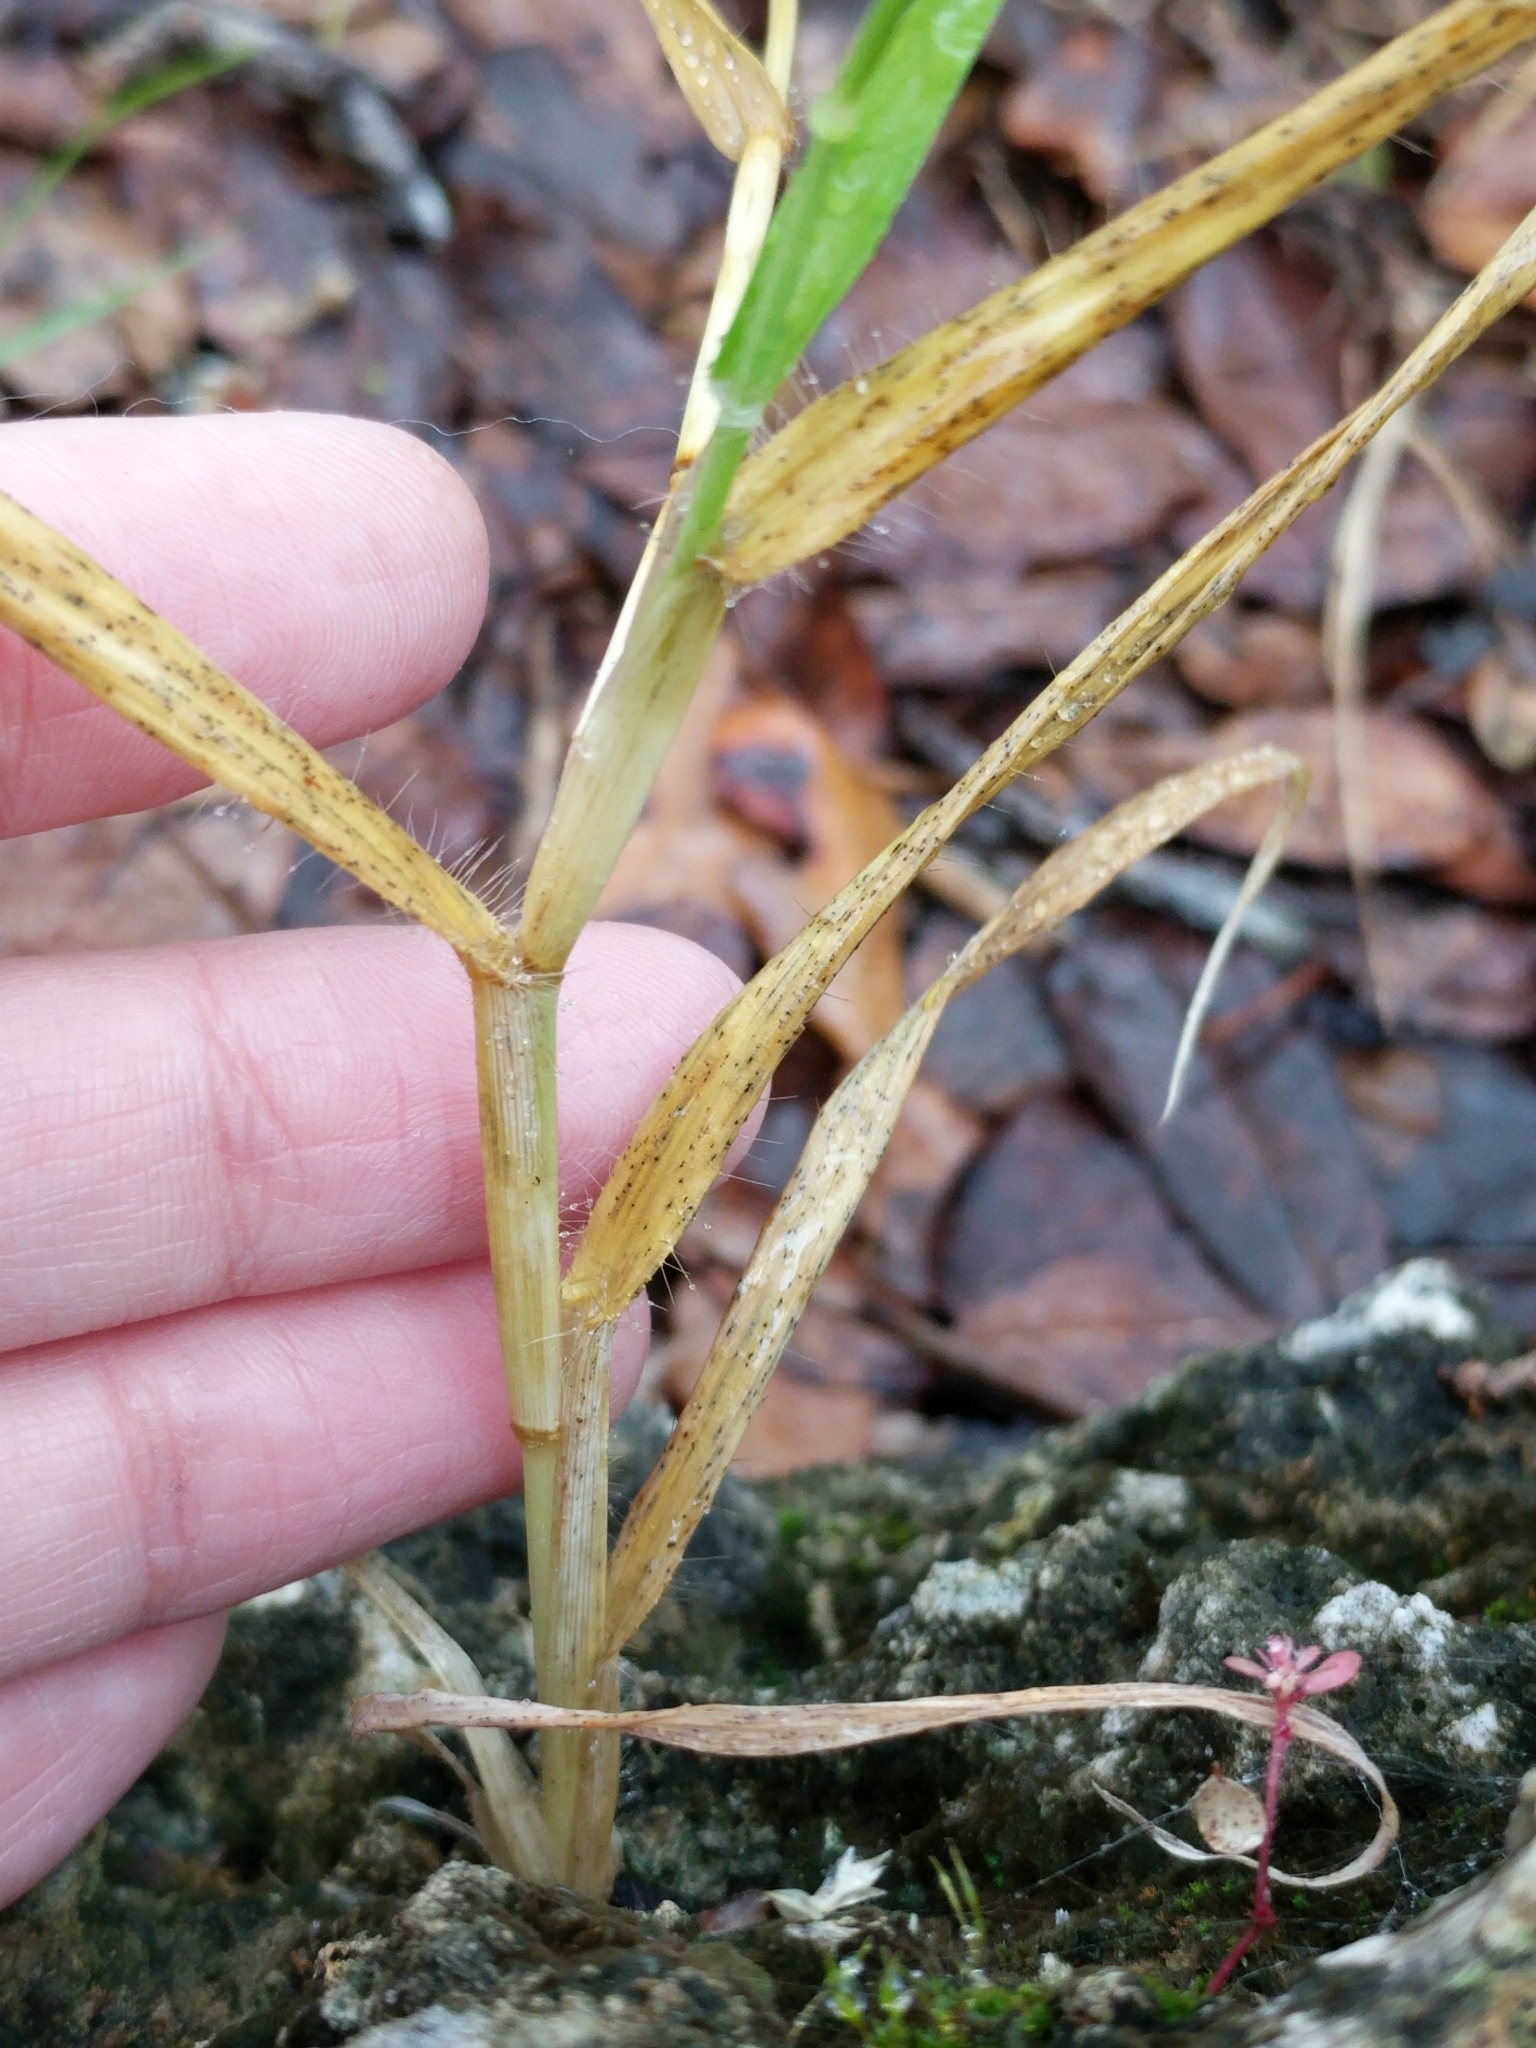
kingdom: Plantae
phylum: Tracheophyta
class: Liliopsida
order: Poales
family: Poaceae
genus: Dactyloctenium
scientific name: Dactyloctenium aegyptium
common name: Egyptian grass
